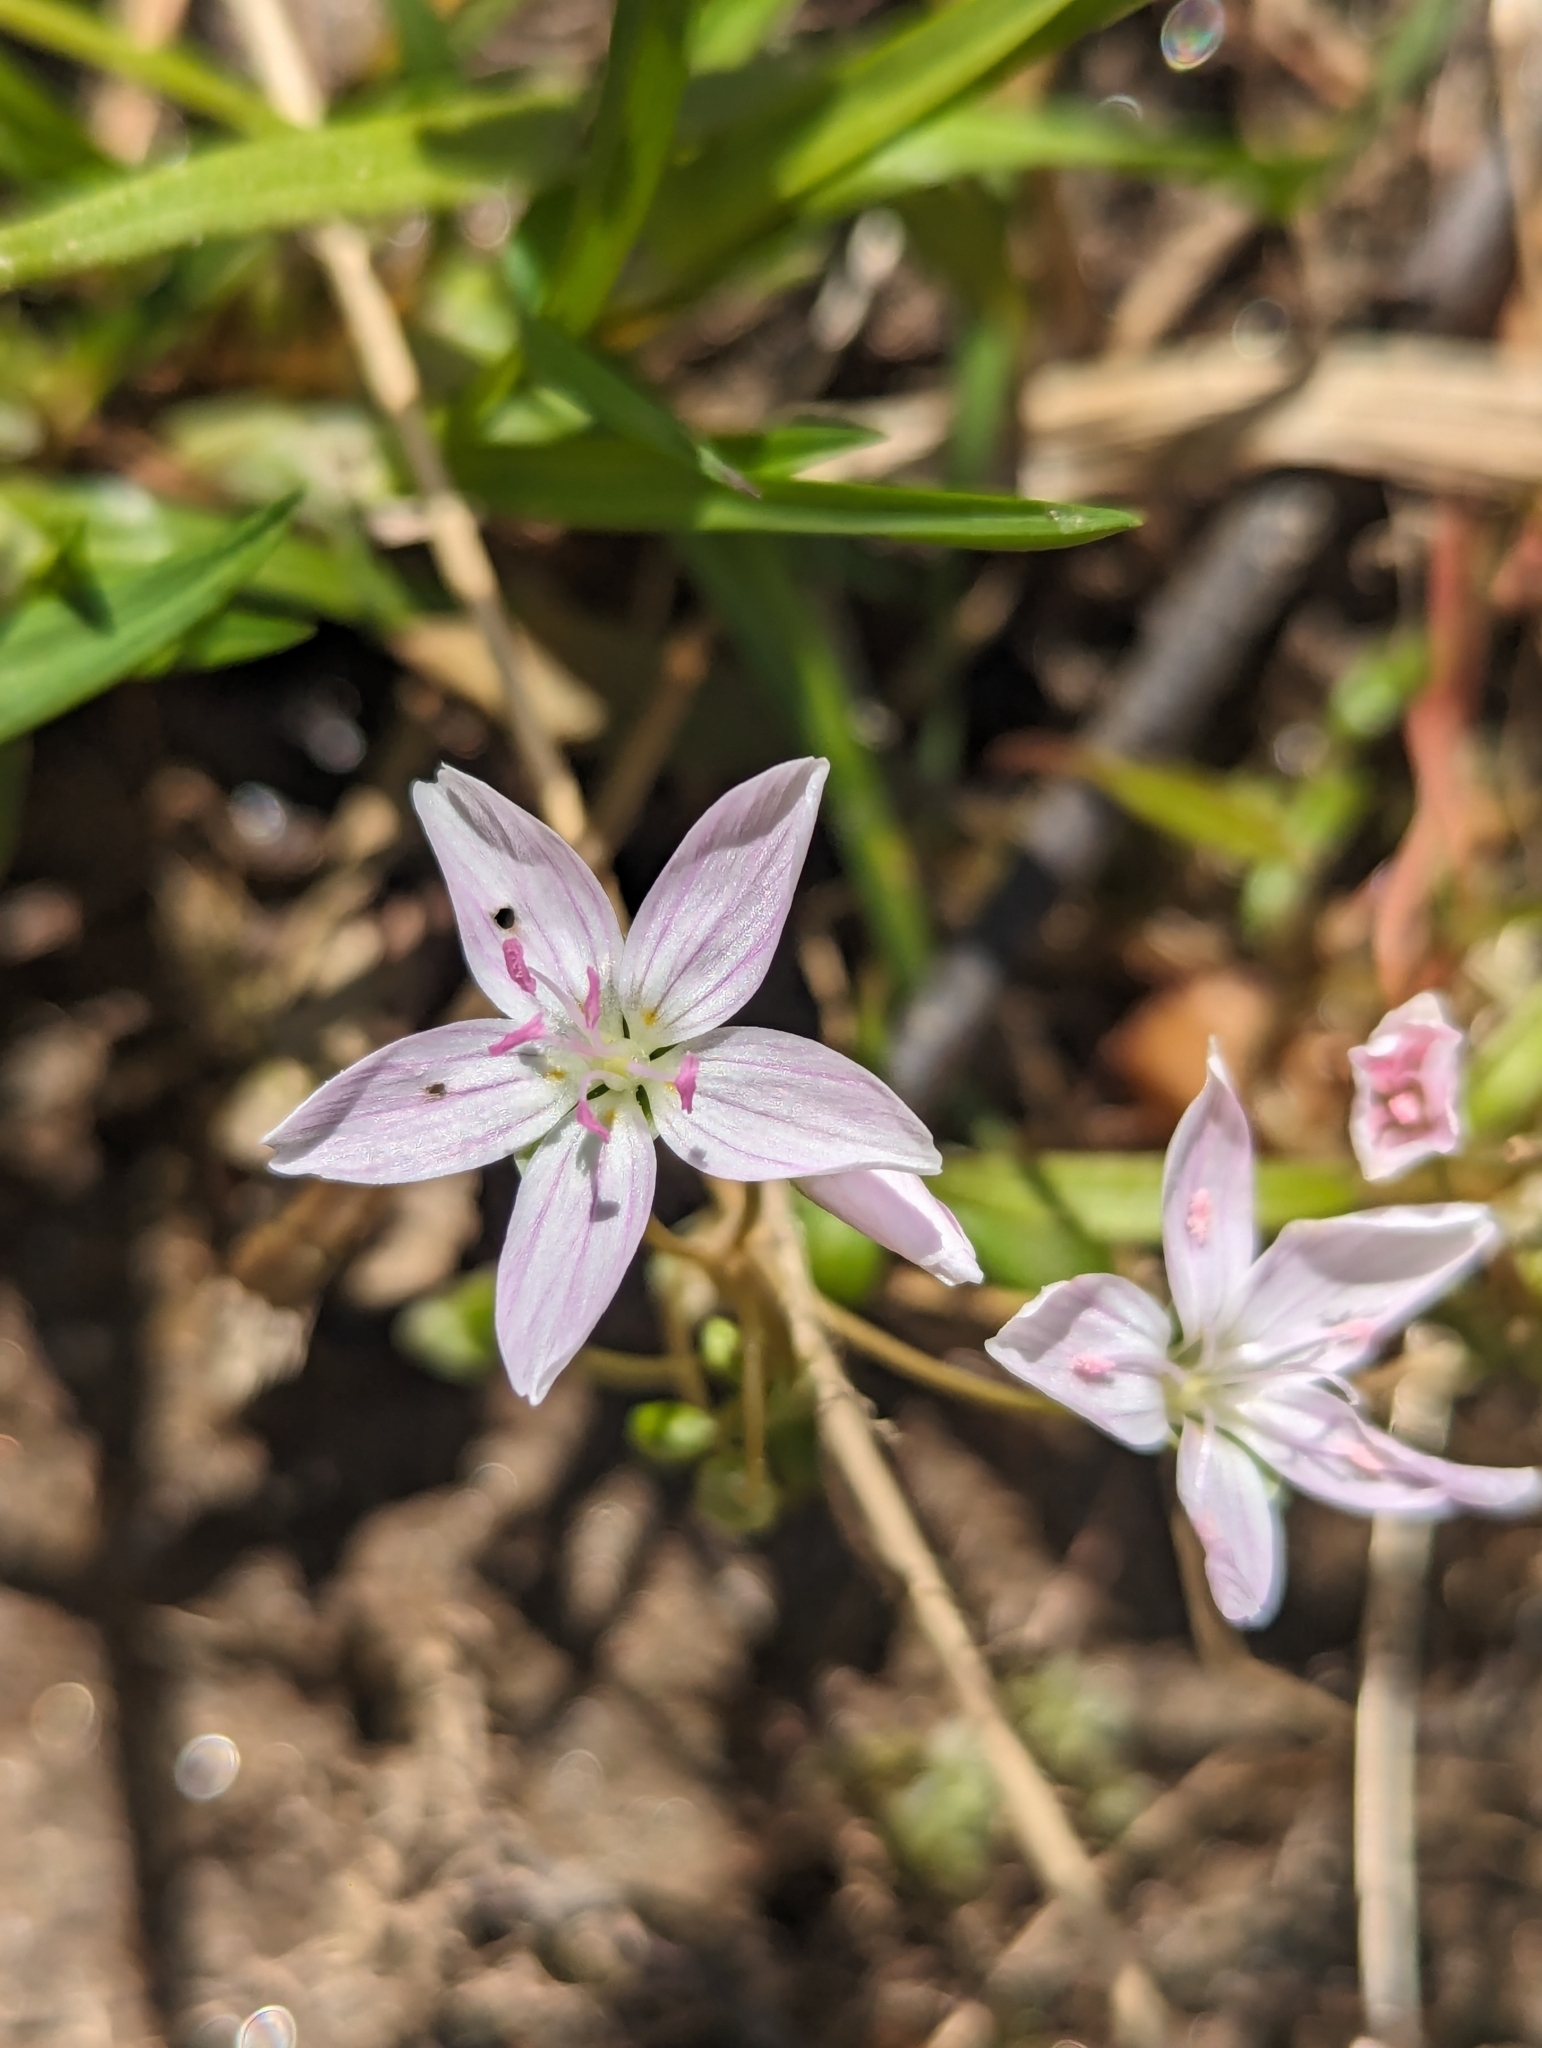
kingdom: Plantae
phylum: Tracheophyta
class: Magnoliopsida
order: Caryophyllales
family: Montiaceae
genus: Claytonia
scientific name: Claytonia virginica
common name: Virginia springbeauty
